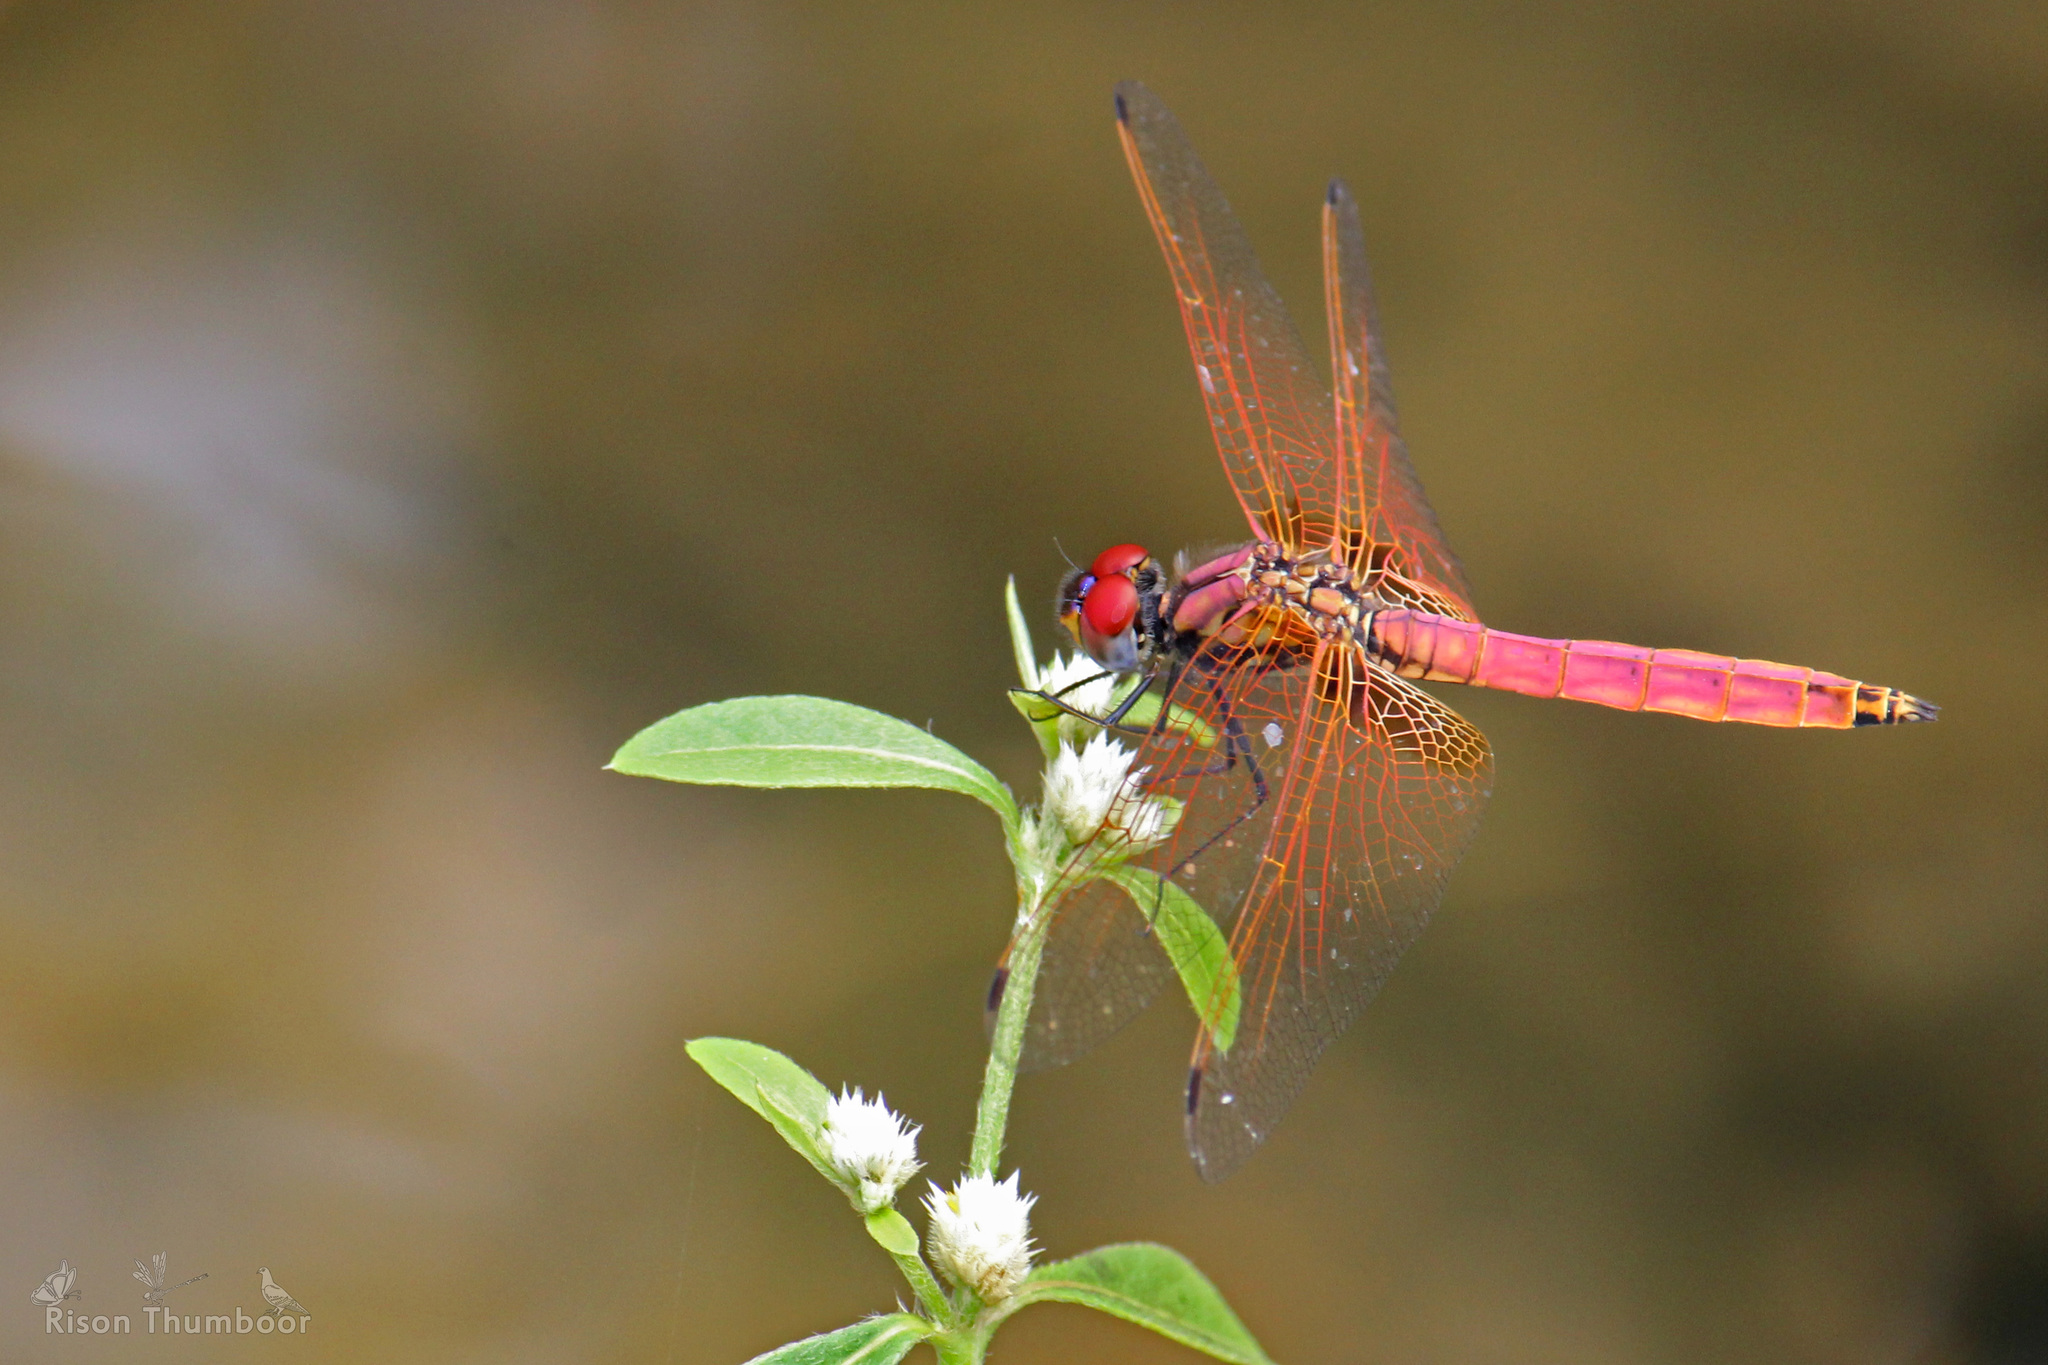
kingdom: Animalia
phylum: Arthropoda
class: Insecta
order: Odonata
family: Libellulidae
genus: Trithemis
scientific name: Trithemis aurora
